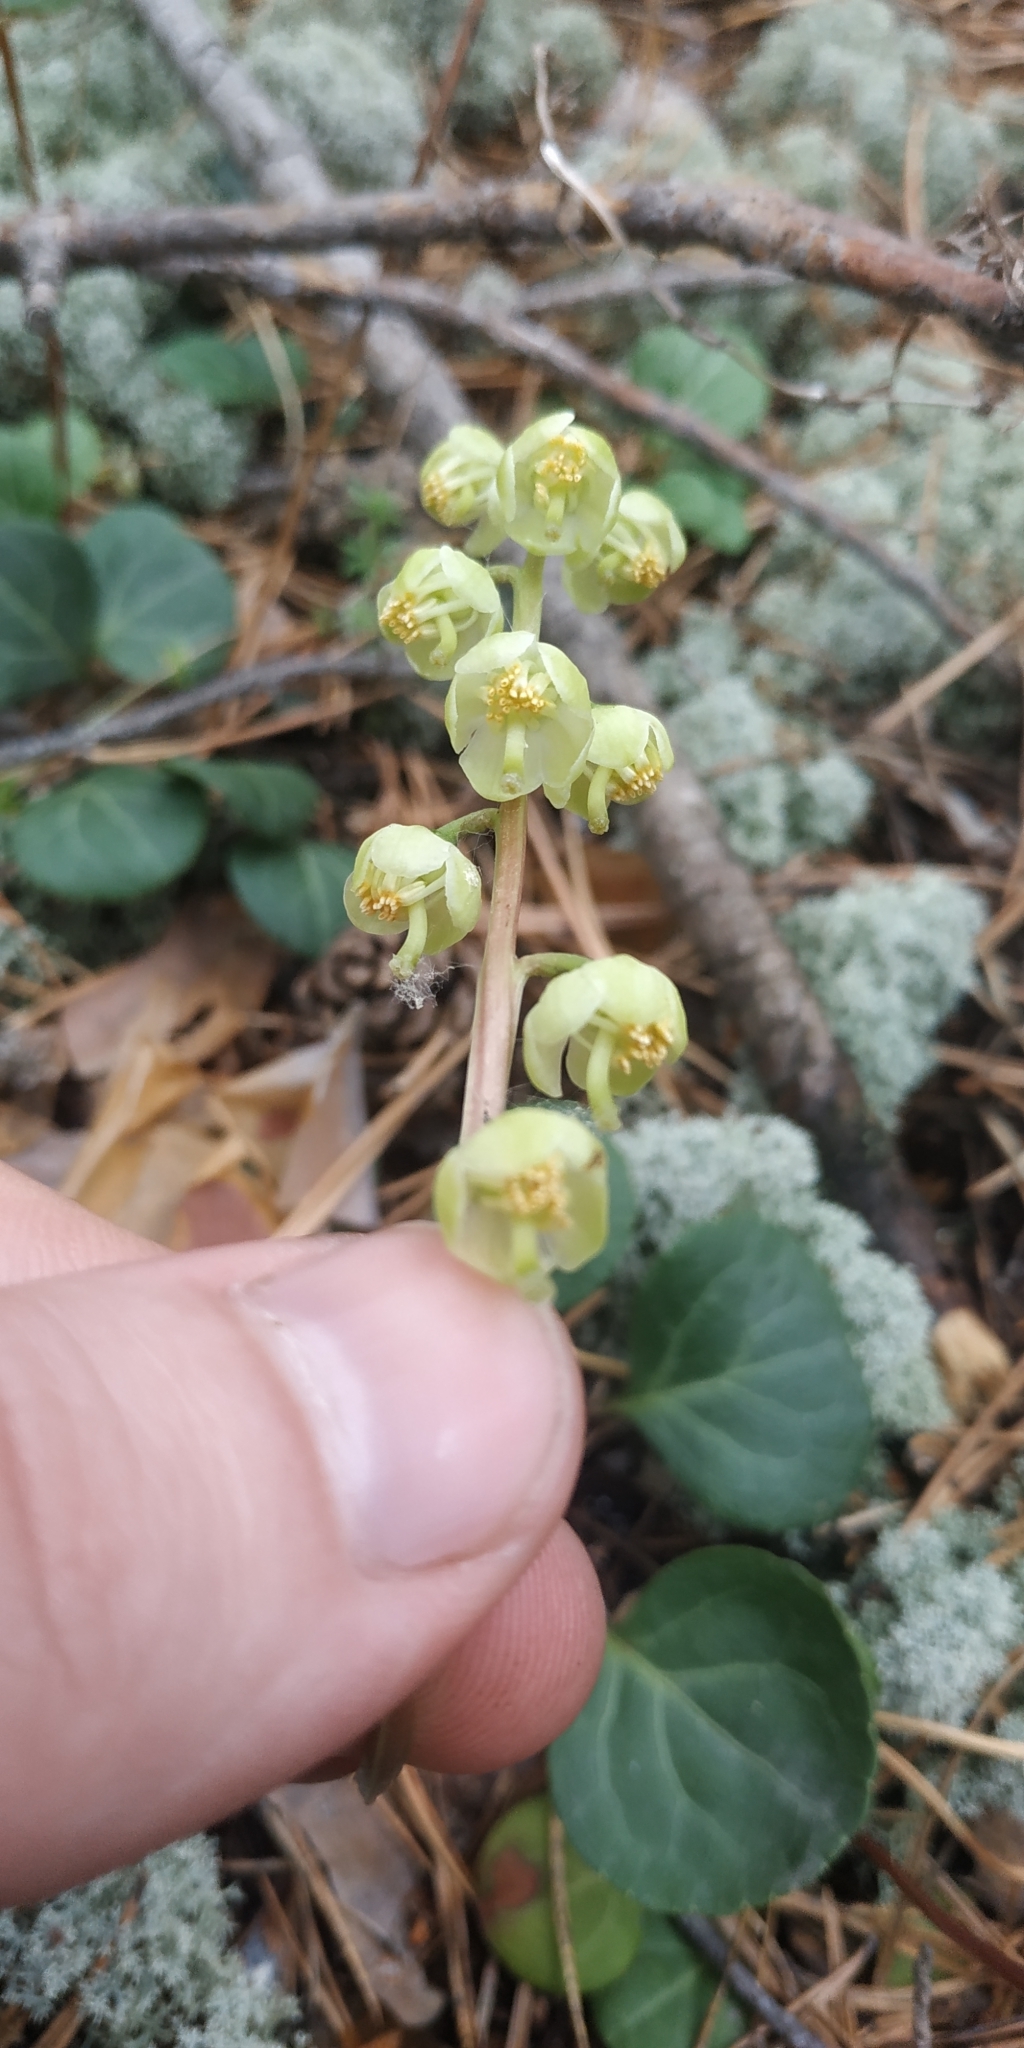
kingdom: Plantae
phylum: Tracheophyta
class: Magnoliopsida
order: Ericales
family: Ericaceae
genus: Pyrola
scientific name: Pyrola chlorantha
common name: Green wintergreen
